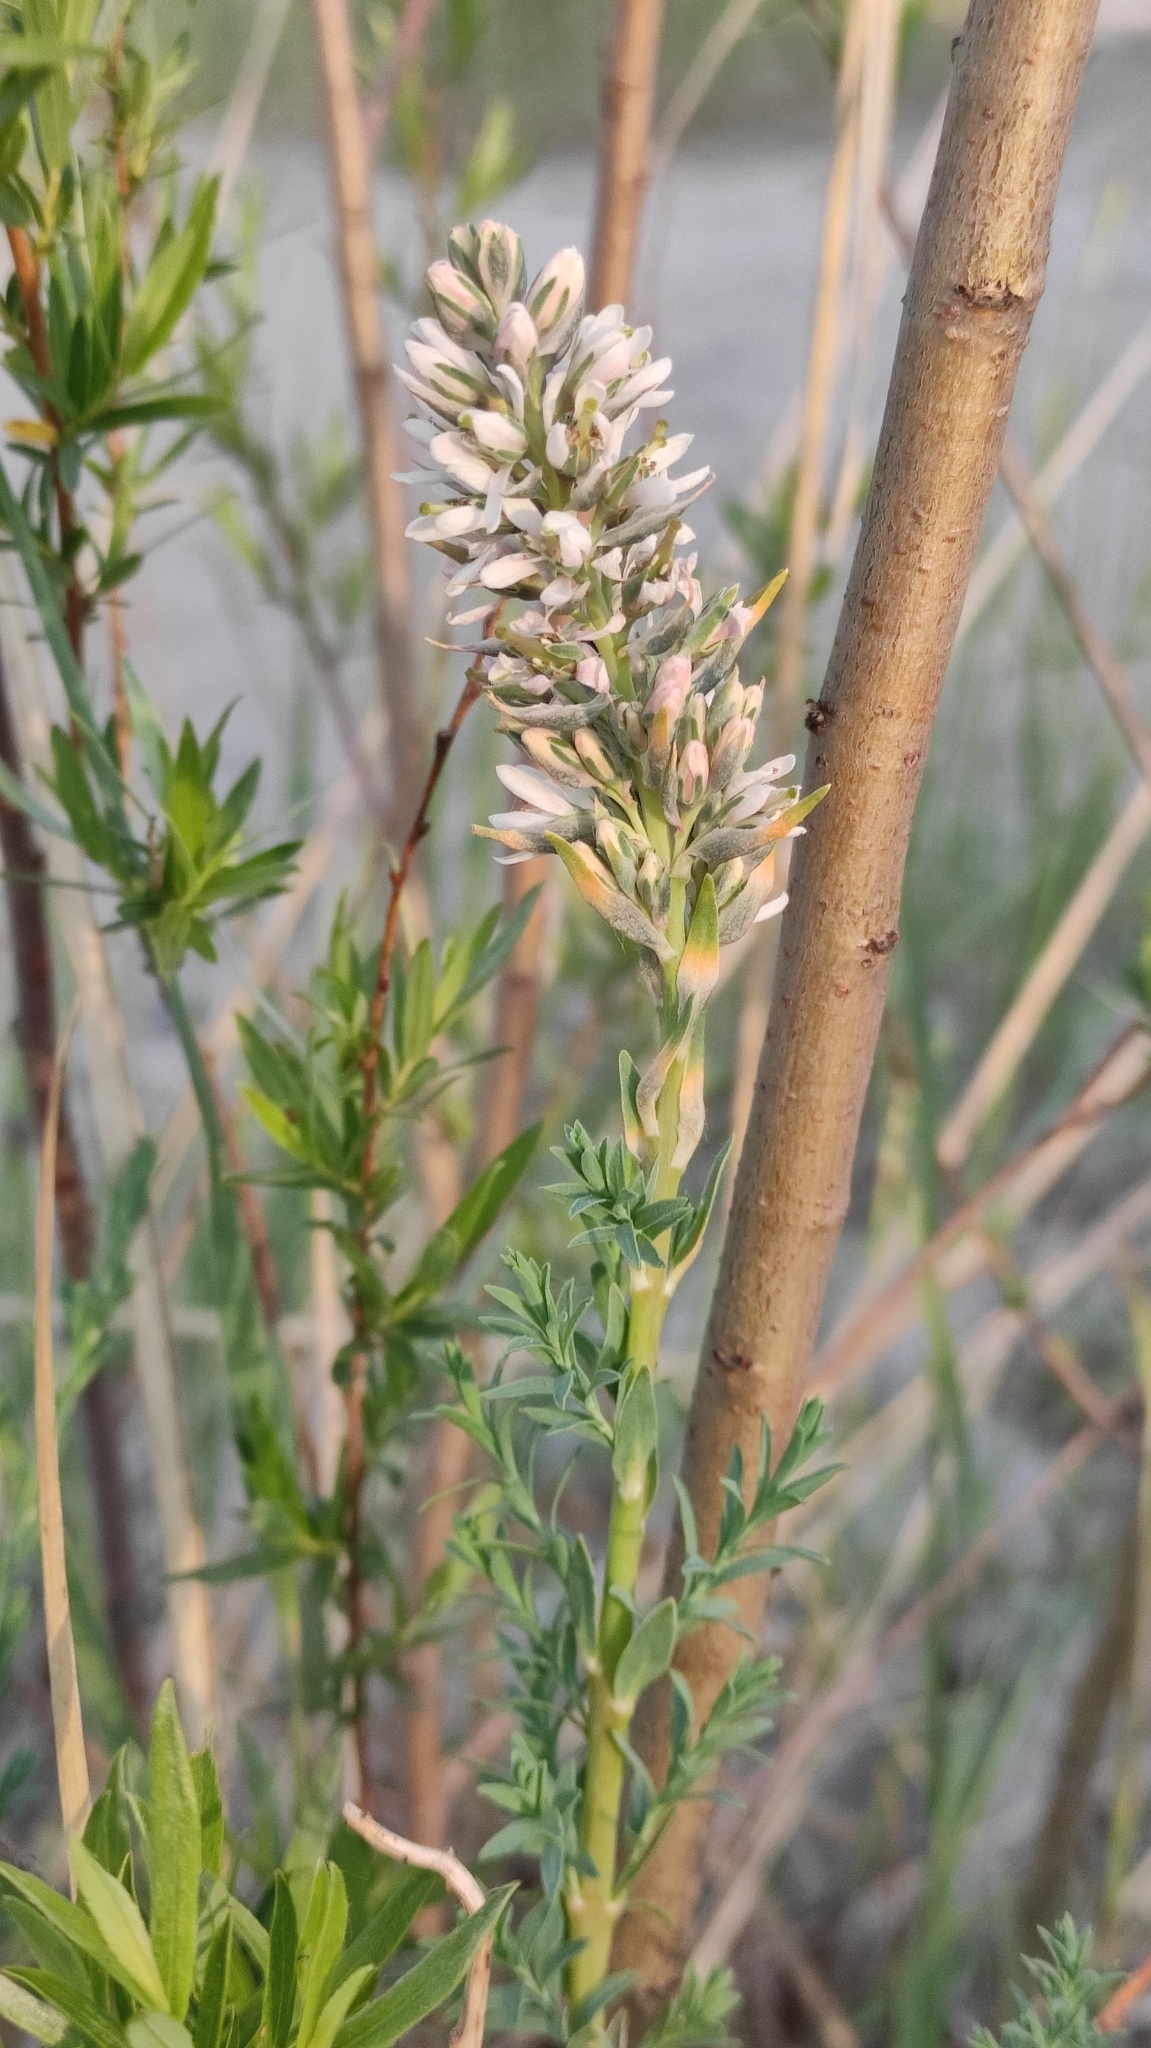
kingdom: Plantae
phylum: Tracheophyta
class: Magnoliopsida
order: Caryophyllales
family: Tamaricaceae
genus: Myricaria
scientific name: Myricaria longifolia
